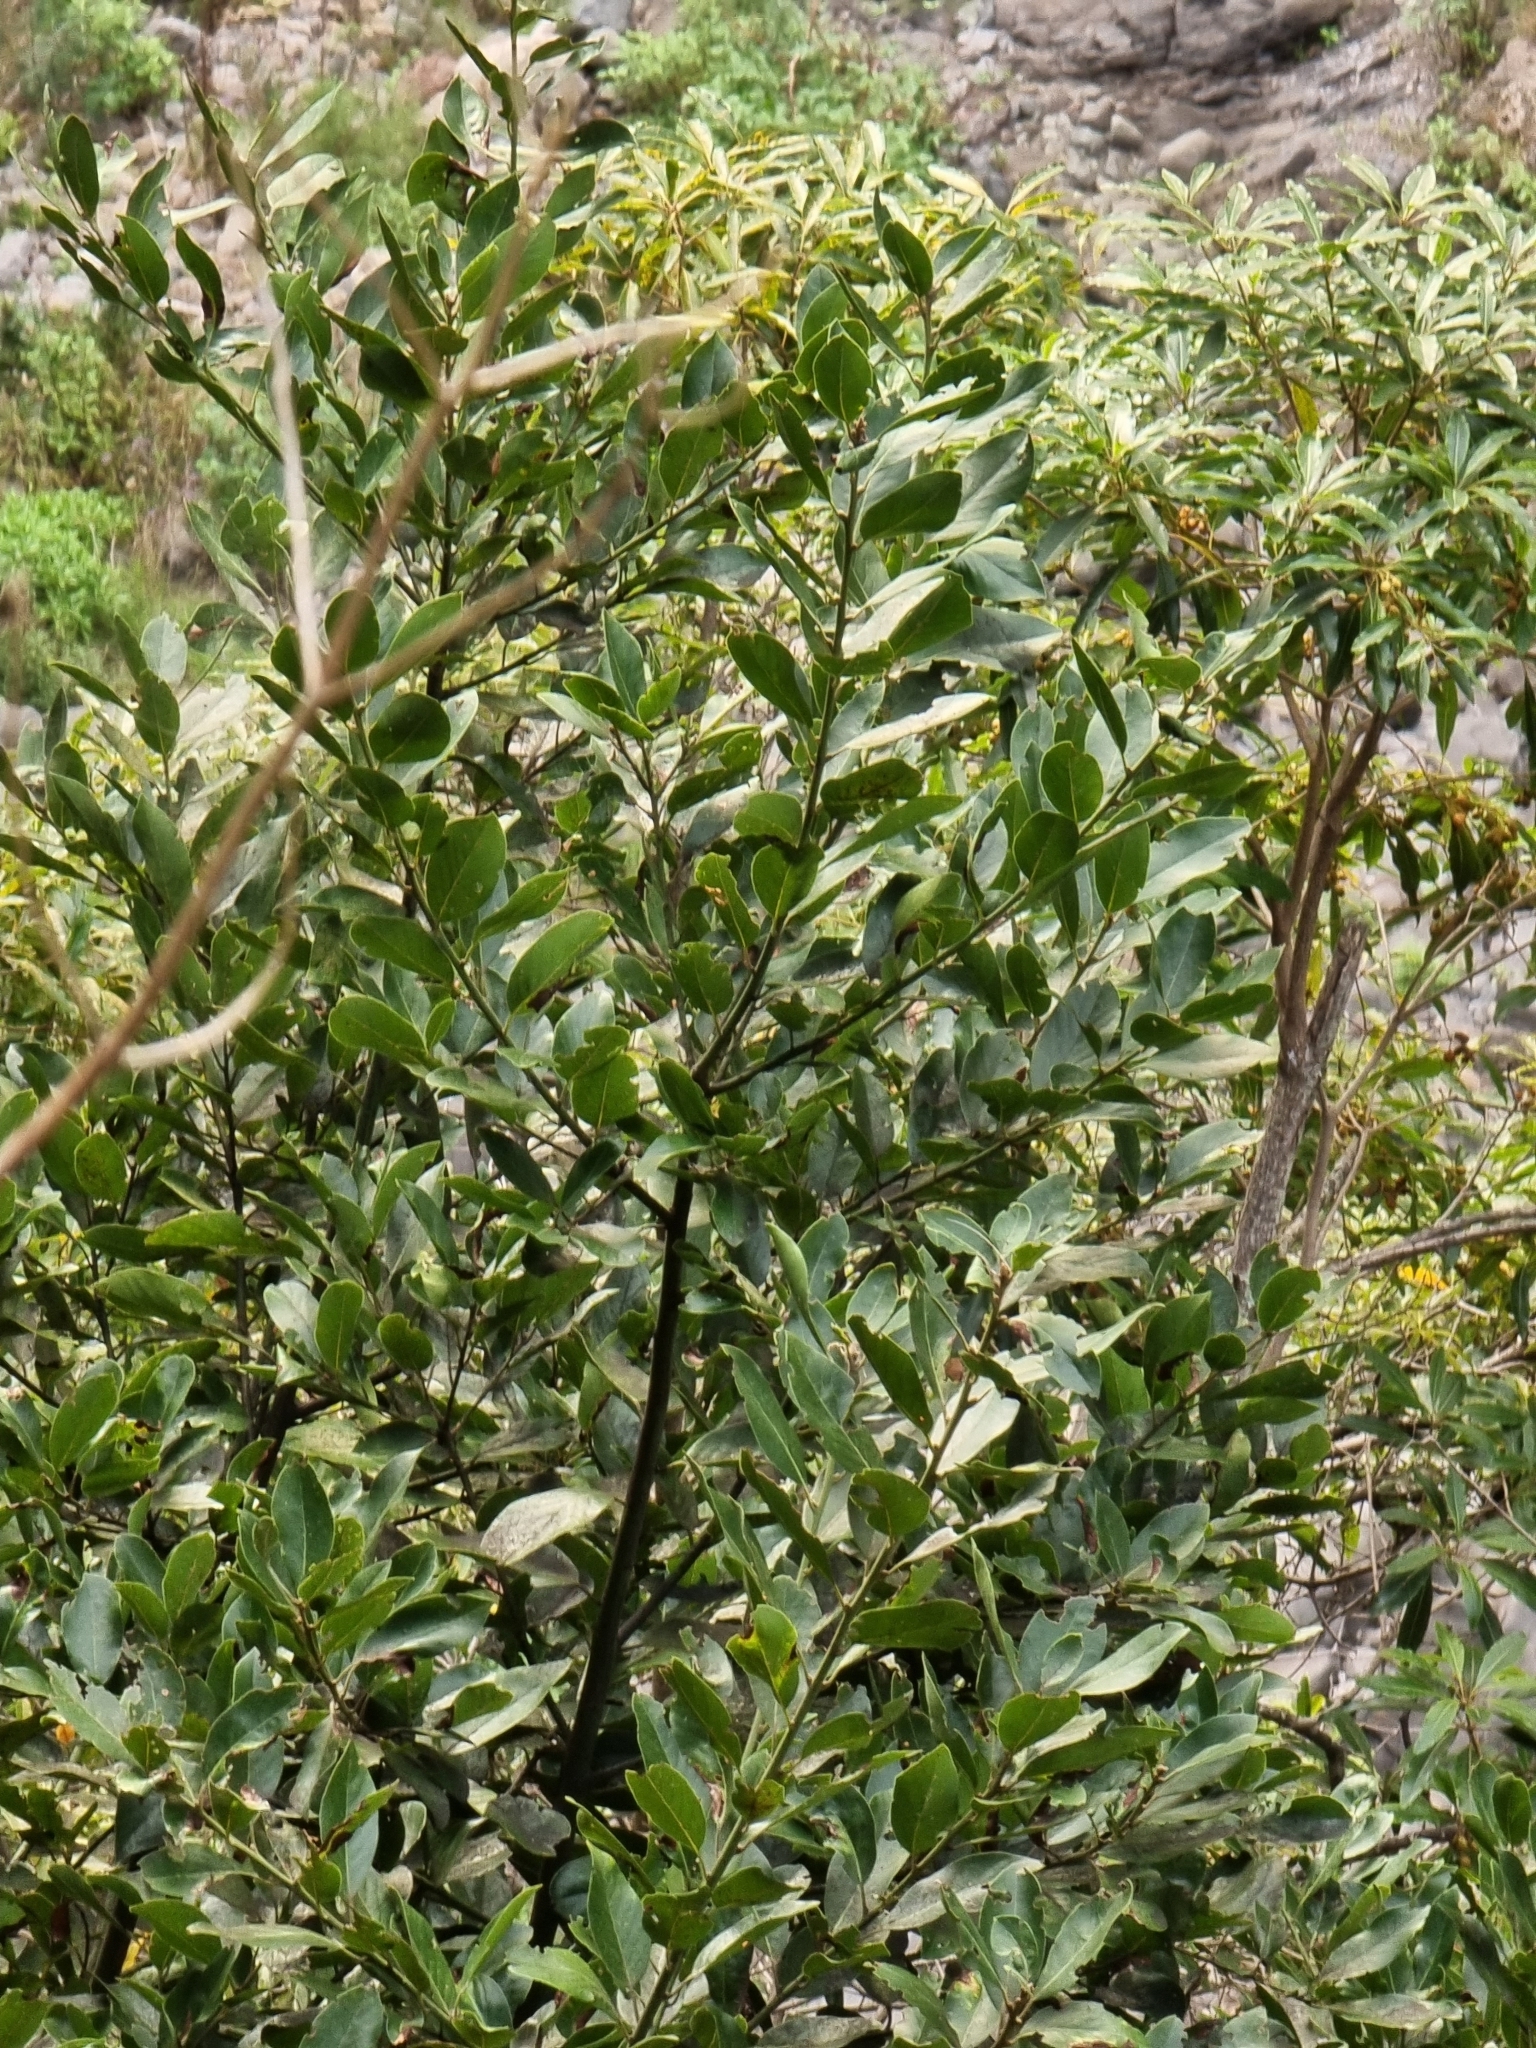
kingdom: Plantae
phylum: Tracheophyta
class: Magnoliopsida
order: Laurales
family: Lauraceae
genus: Laurus
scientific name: Laurus novocanariensis
